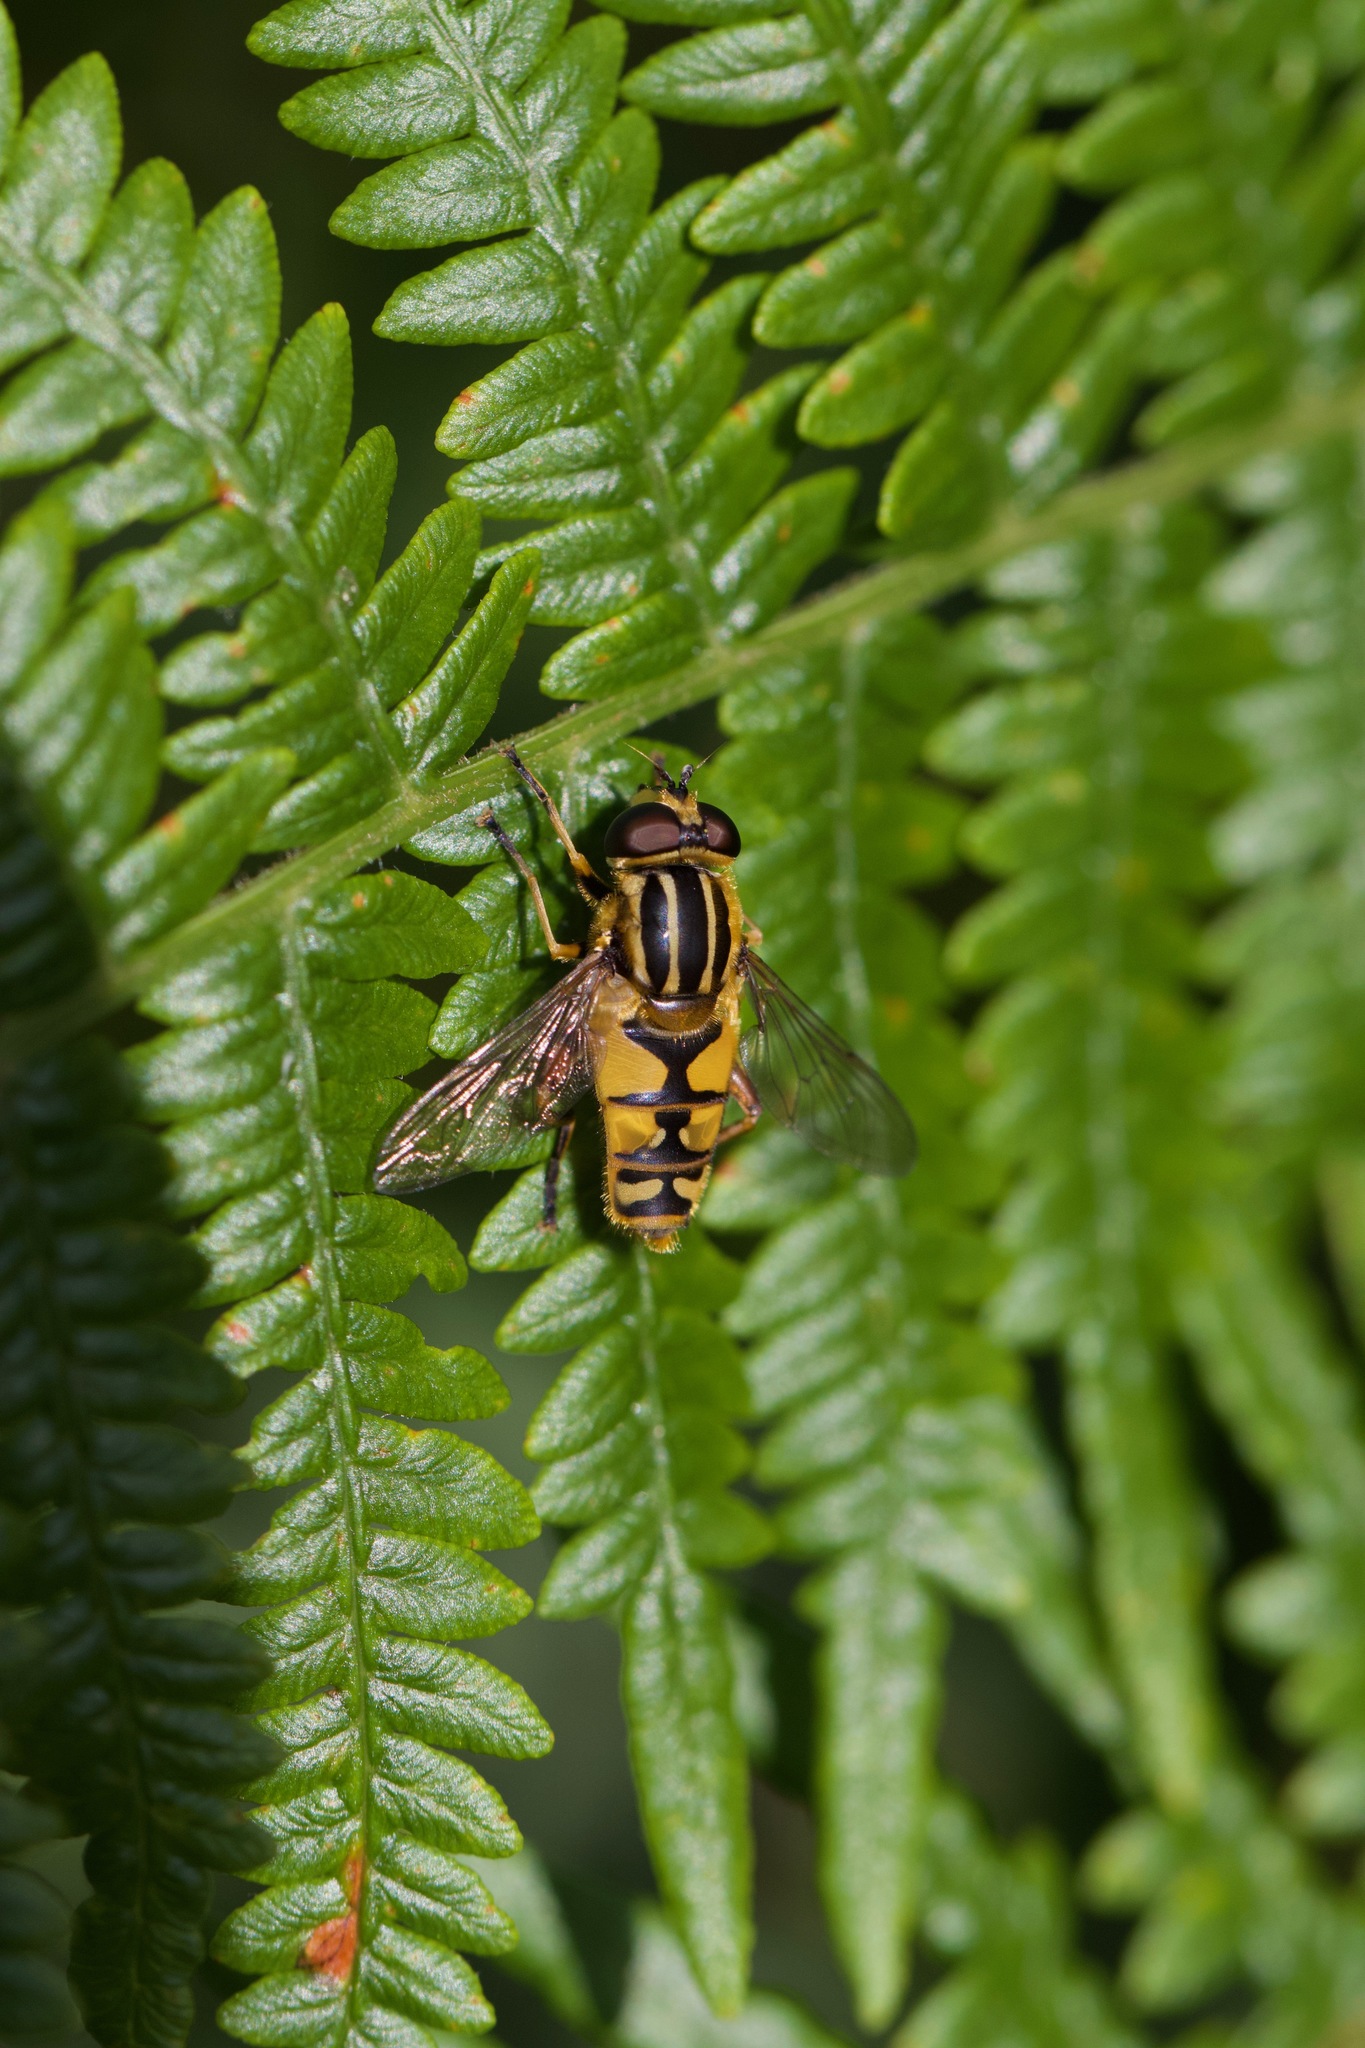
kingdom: Animalia
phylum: Arthropoda
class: Insecta
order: Diptera
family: Syrphidae
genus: Helophilus
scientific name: Helophilus pendulus
